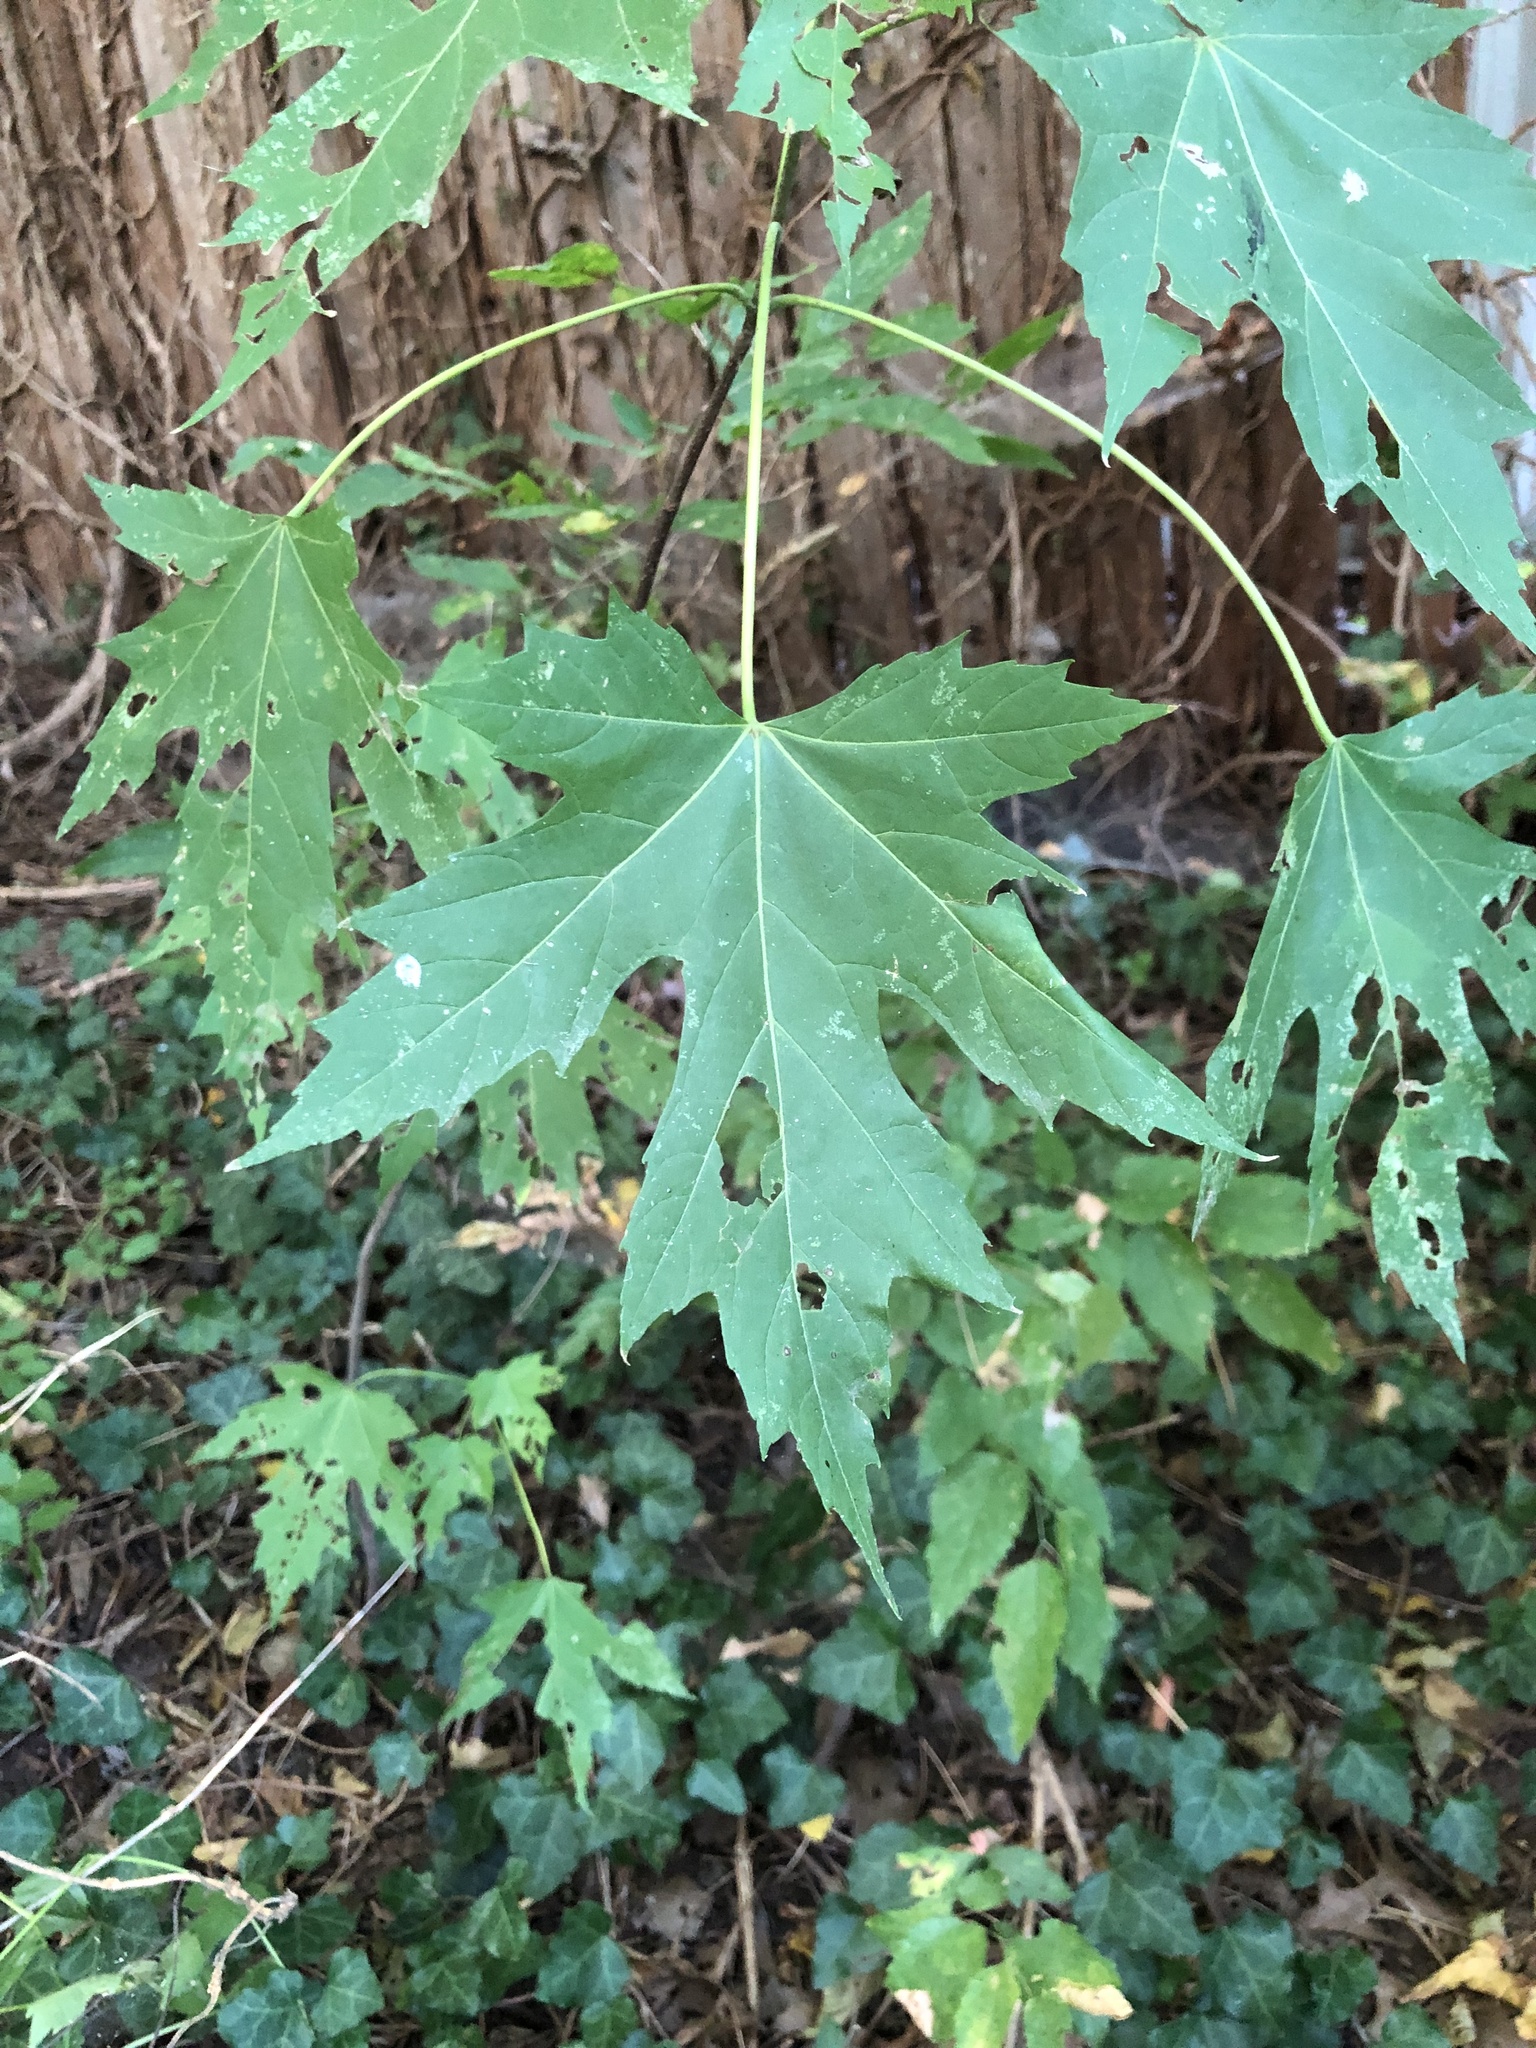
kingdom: Plantae
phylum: Tracheophyta
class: Magnoliopsida
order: Sapindales
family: Sapindaceae
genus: Acer
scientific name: Acer saccharinum
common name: Silver maple
